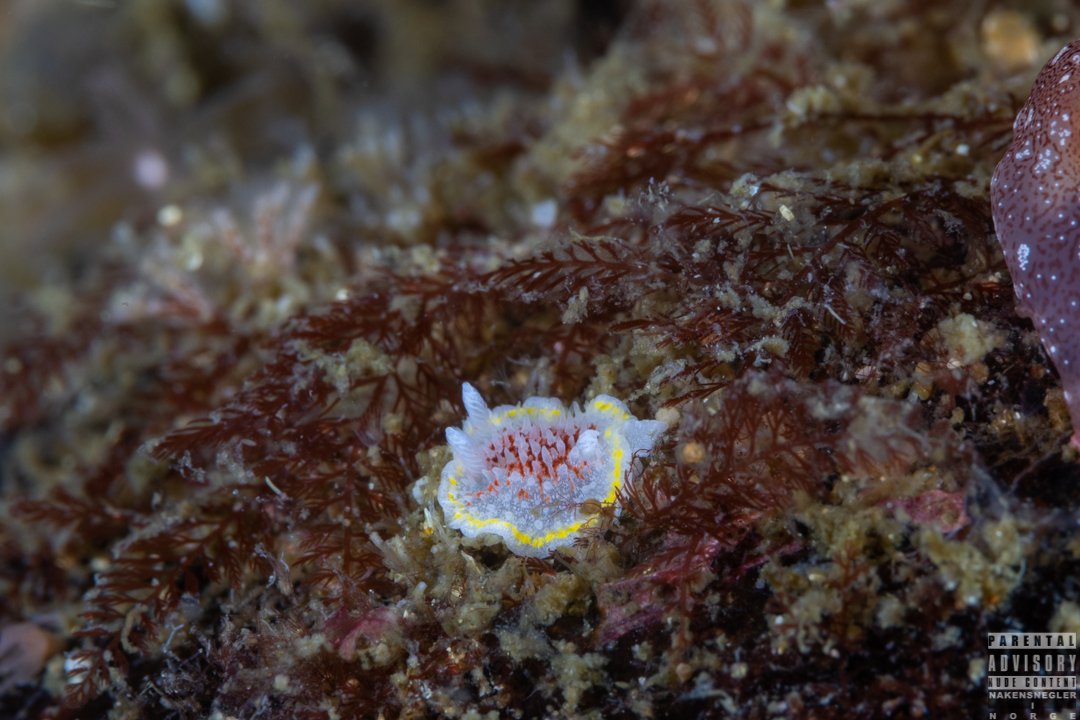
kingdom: Animalia
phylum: Mollusca
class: Gastropoda
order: Nudibranchia
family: Calycidorididae
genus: Diaphorodoris
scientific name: Diaphorodoris luteocincta
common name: Fried egg nudibranch
